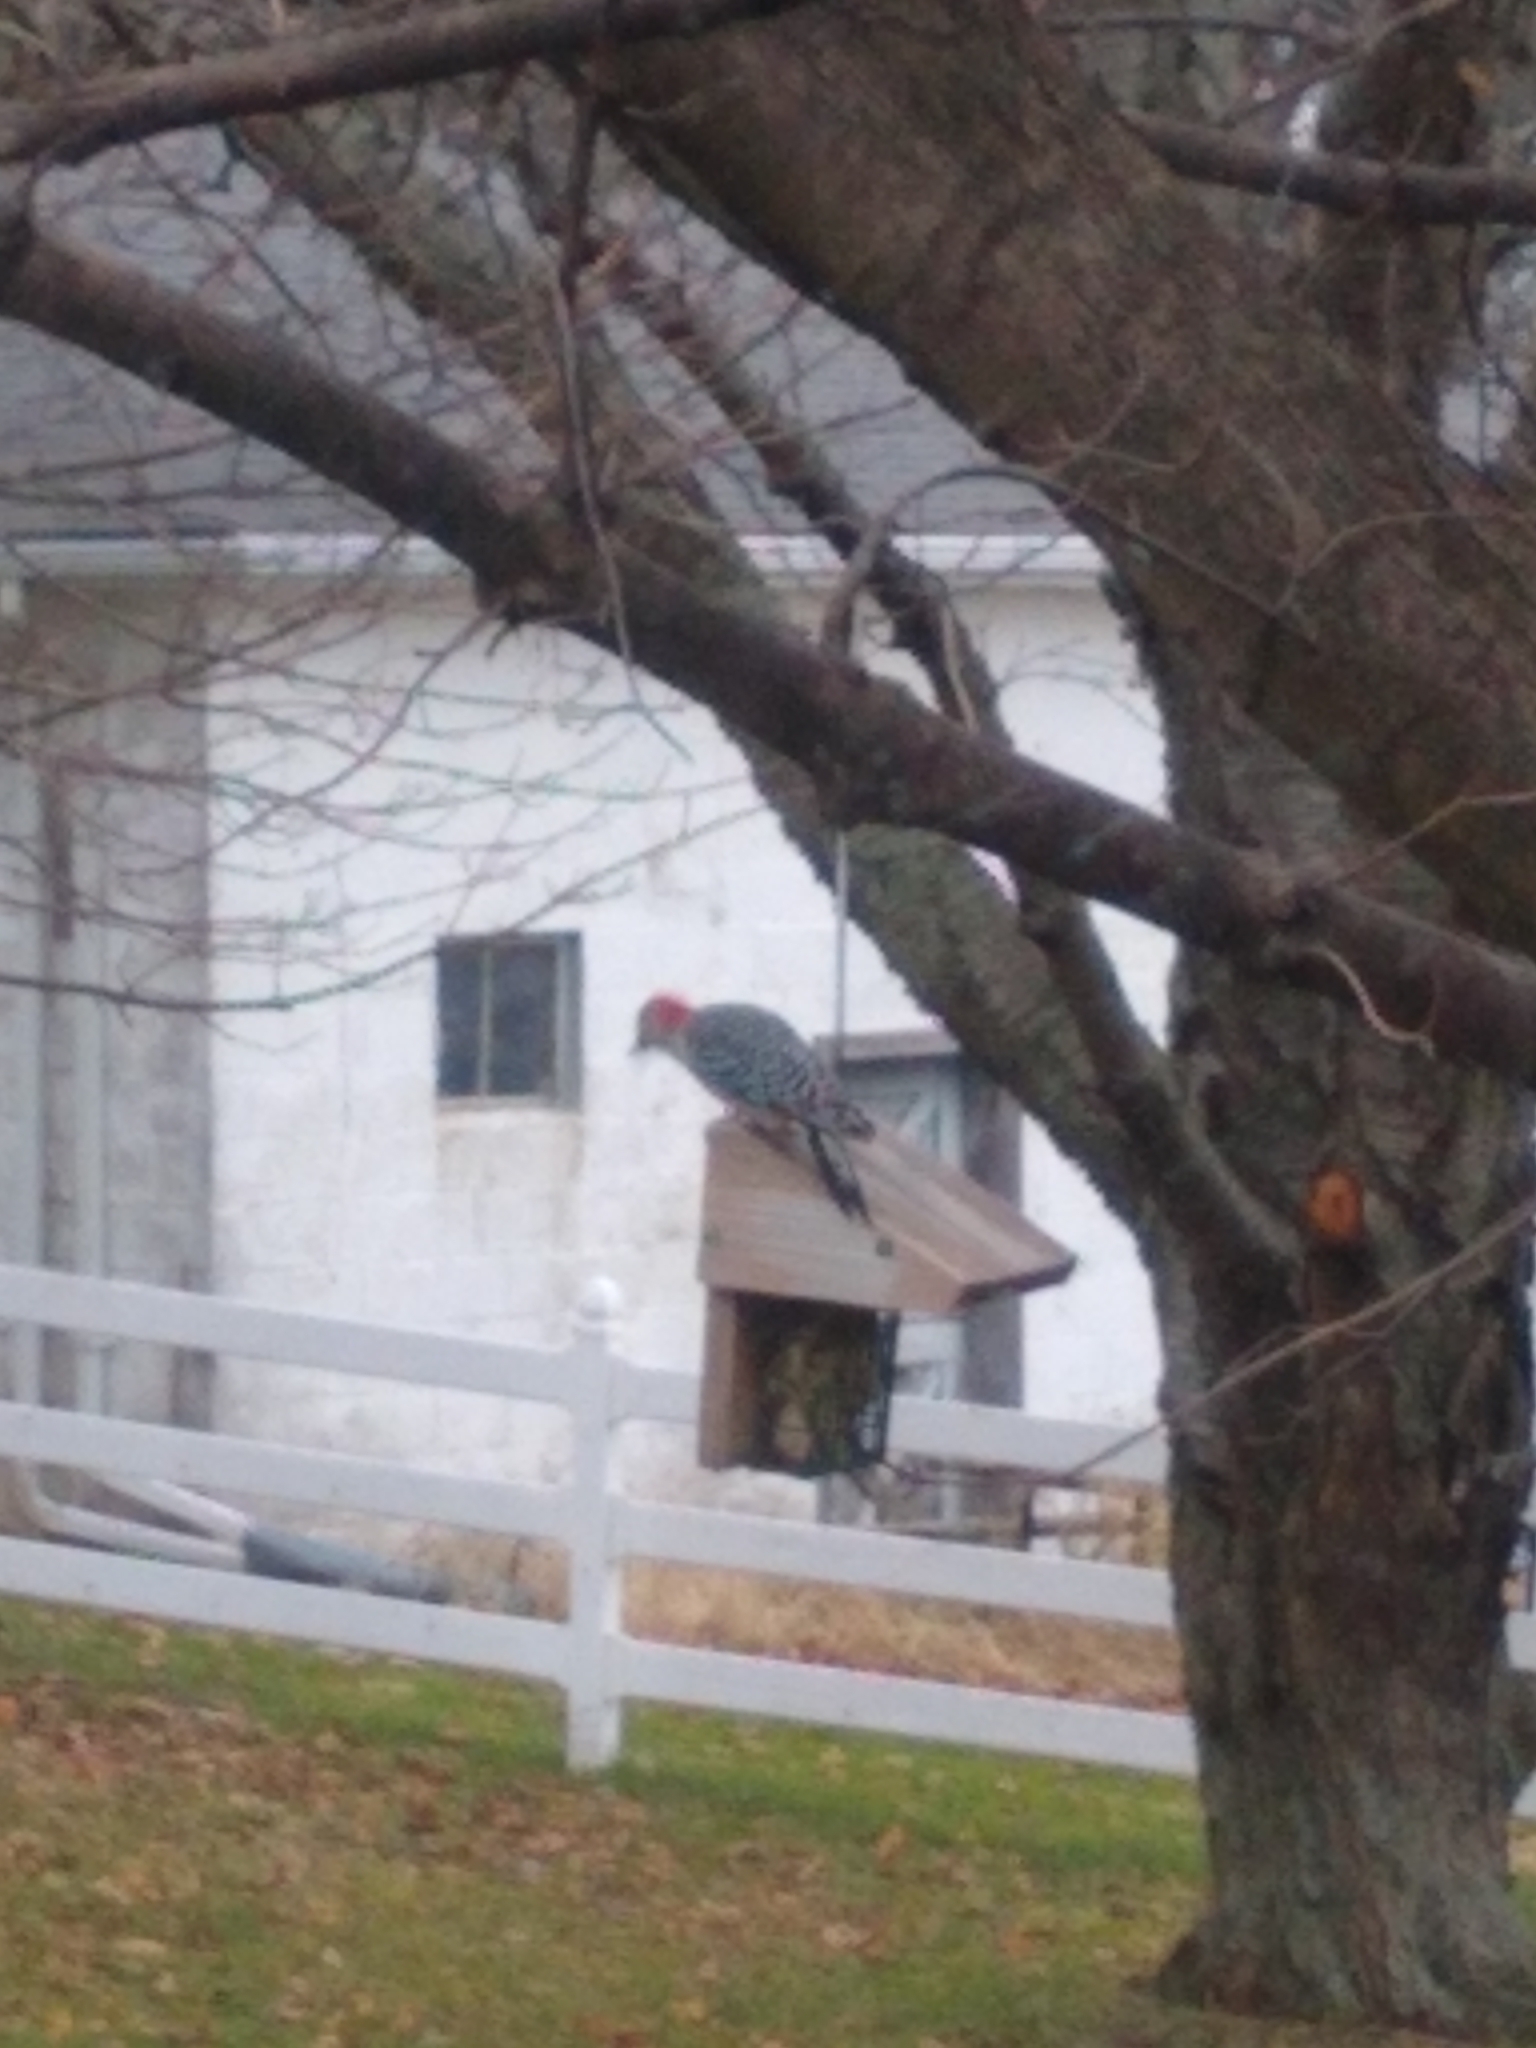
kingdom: Animalia
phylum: Chordata
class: Aves
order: Piciformes
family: Picidae
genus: Melanerpes
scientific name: Melanerpes carolinus
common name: Red-bellied woodpecker
